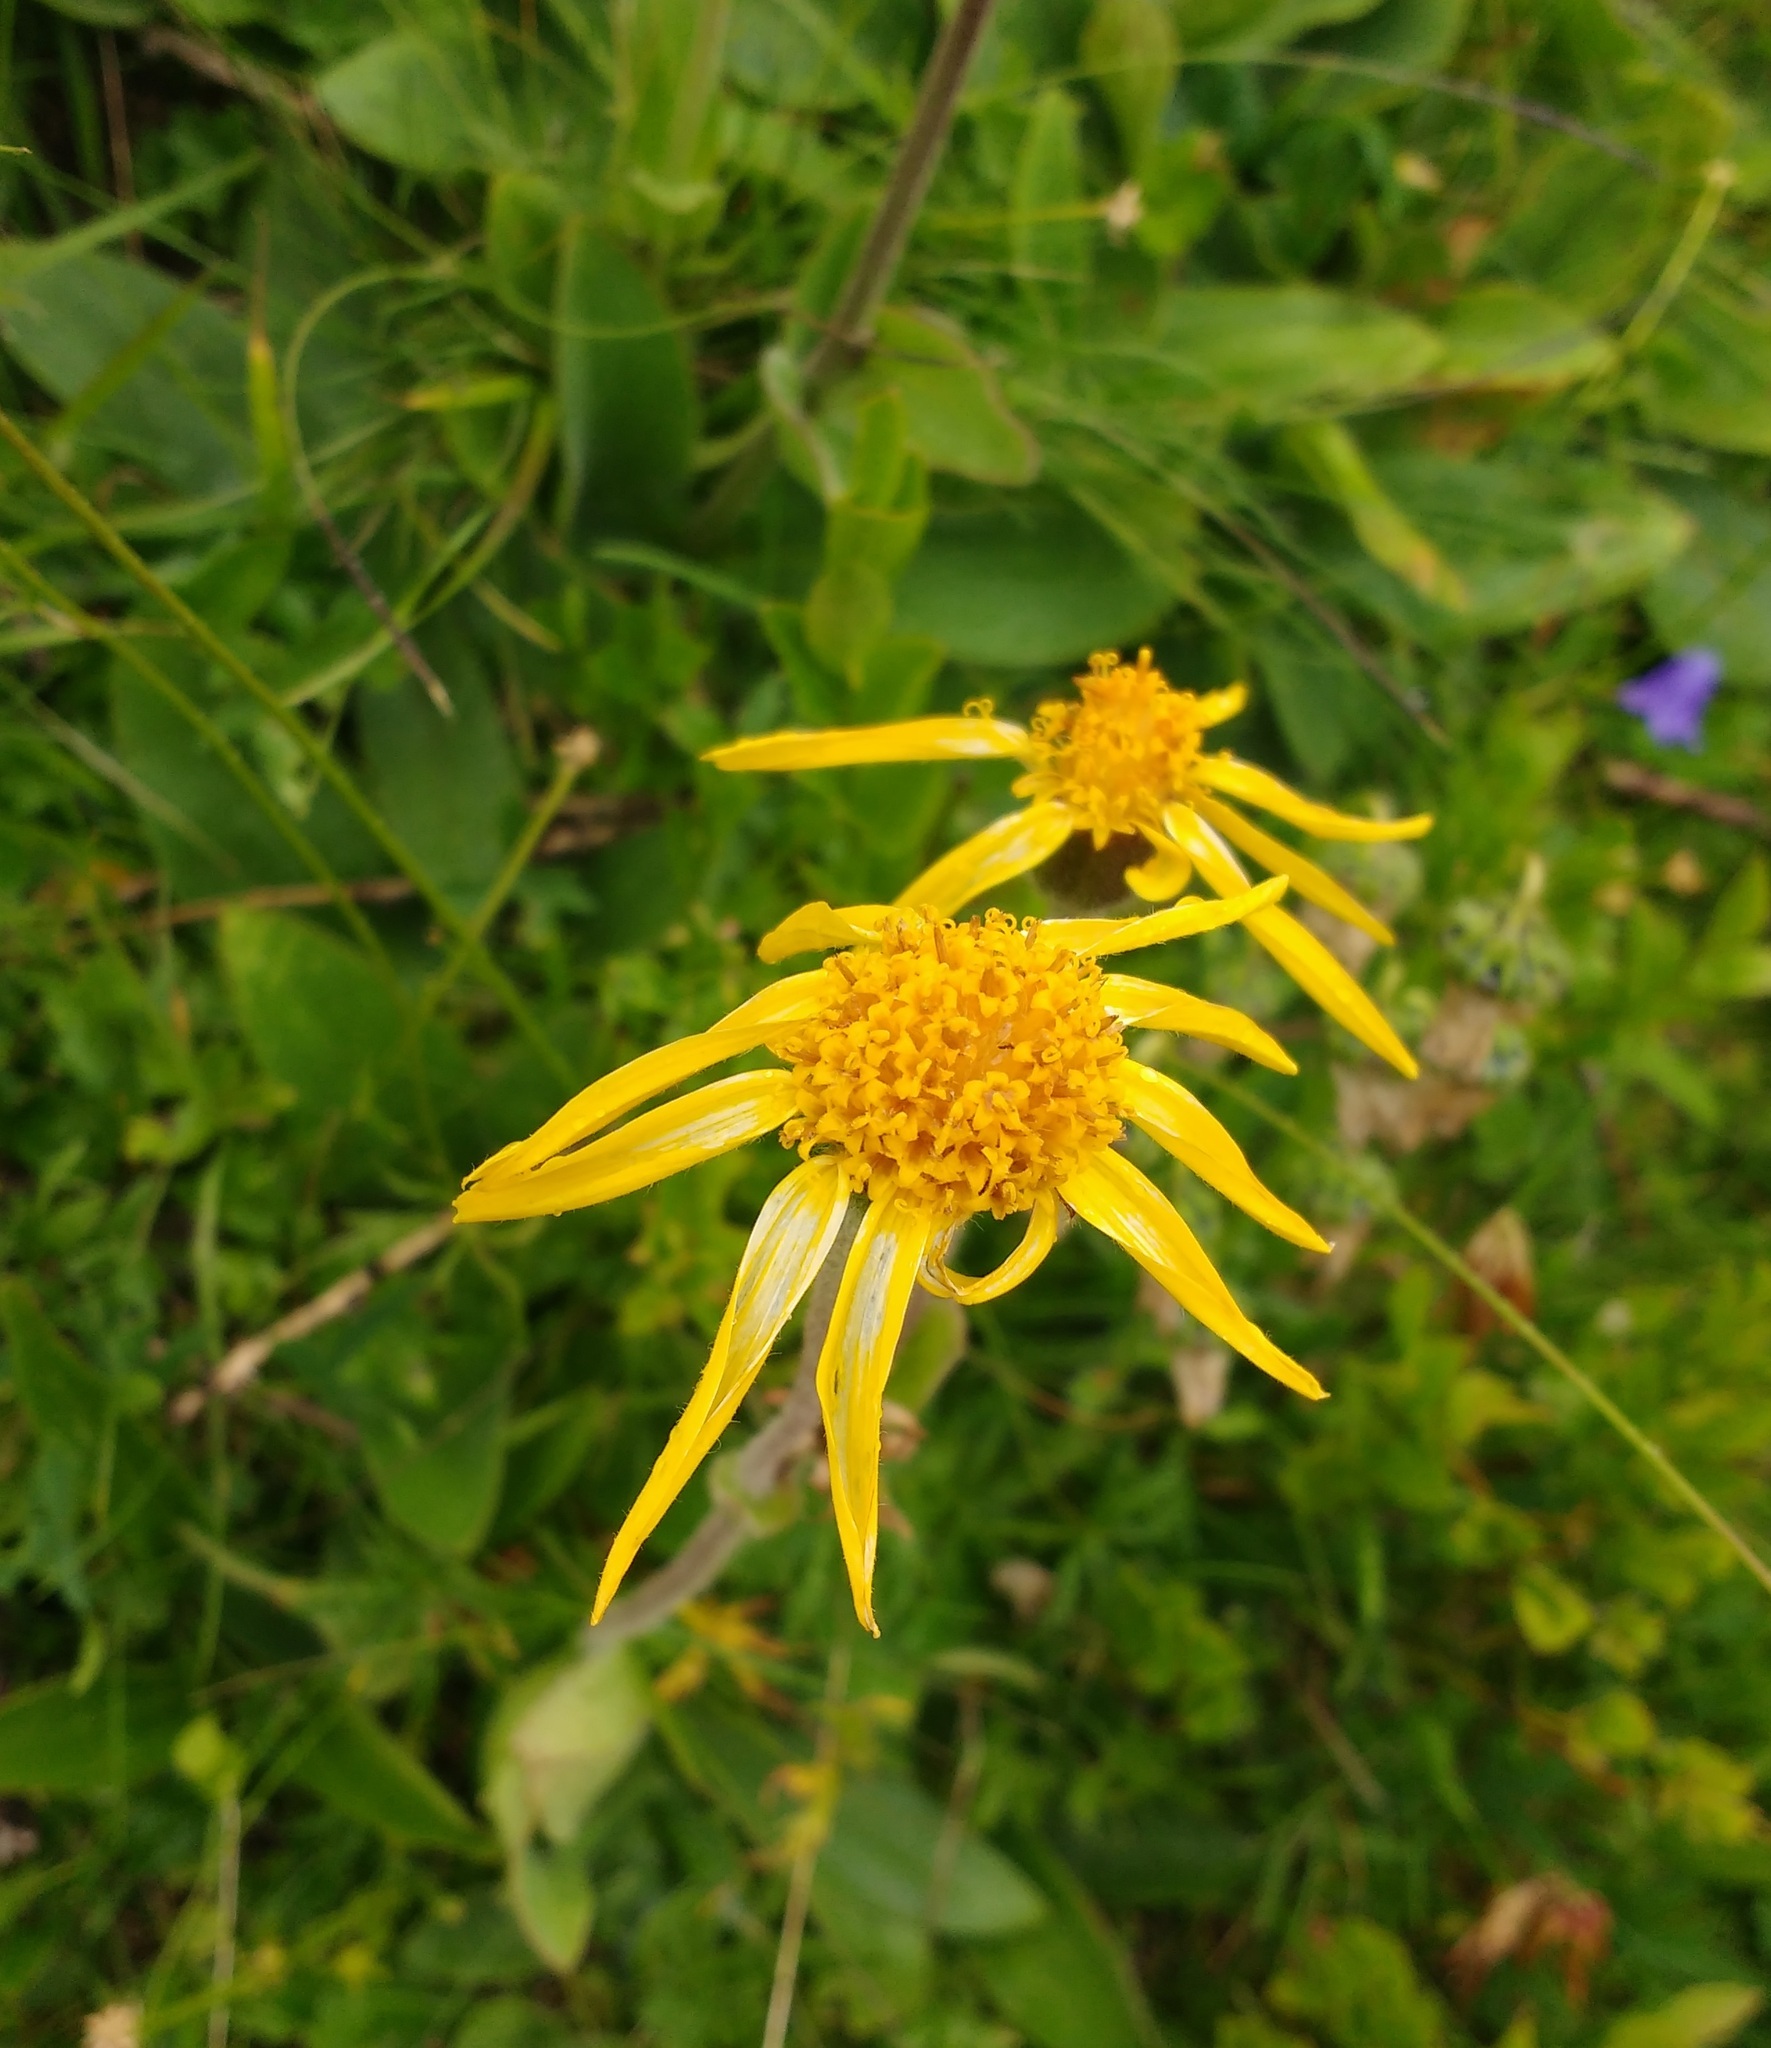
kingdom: Plantae
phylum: Tracheophyta
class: Magnoliopsida
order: Asterales
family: Asteraceae
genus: Arnica
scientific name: Arnica montana
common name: Leopard's bane
